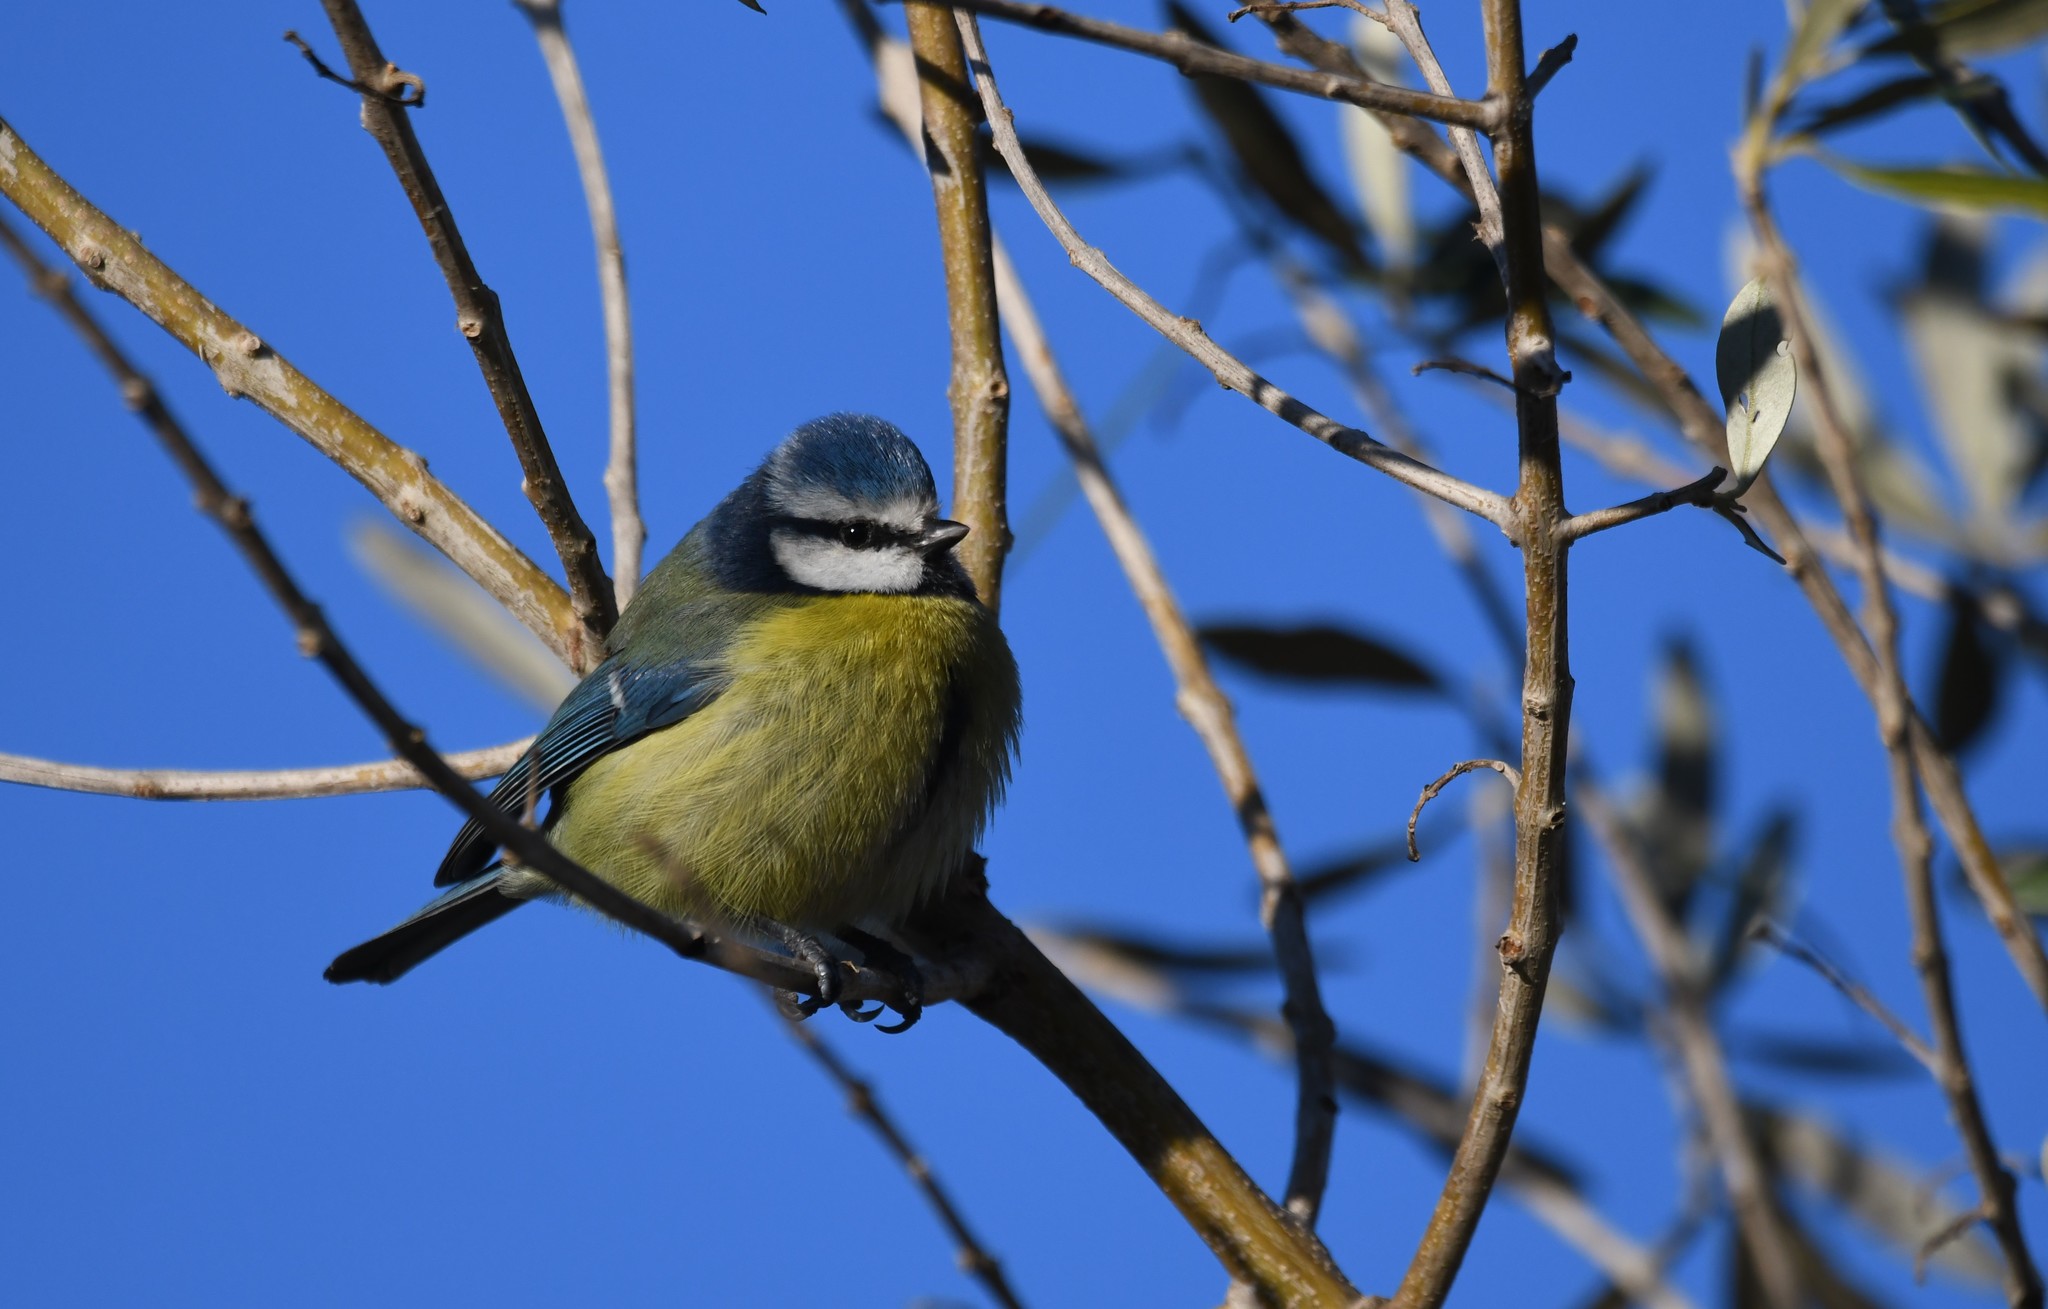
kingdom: Animalia
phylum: Chordata
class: Aves
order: Passeriformes
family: Paridae
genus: Cyanistes
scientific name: Cyanistes caeruleus
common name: Eurasian blue tit
